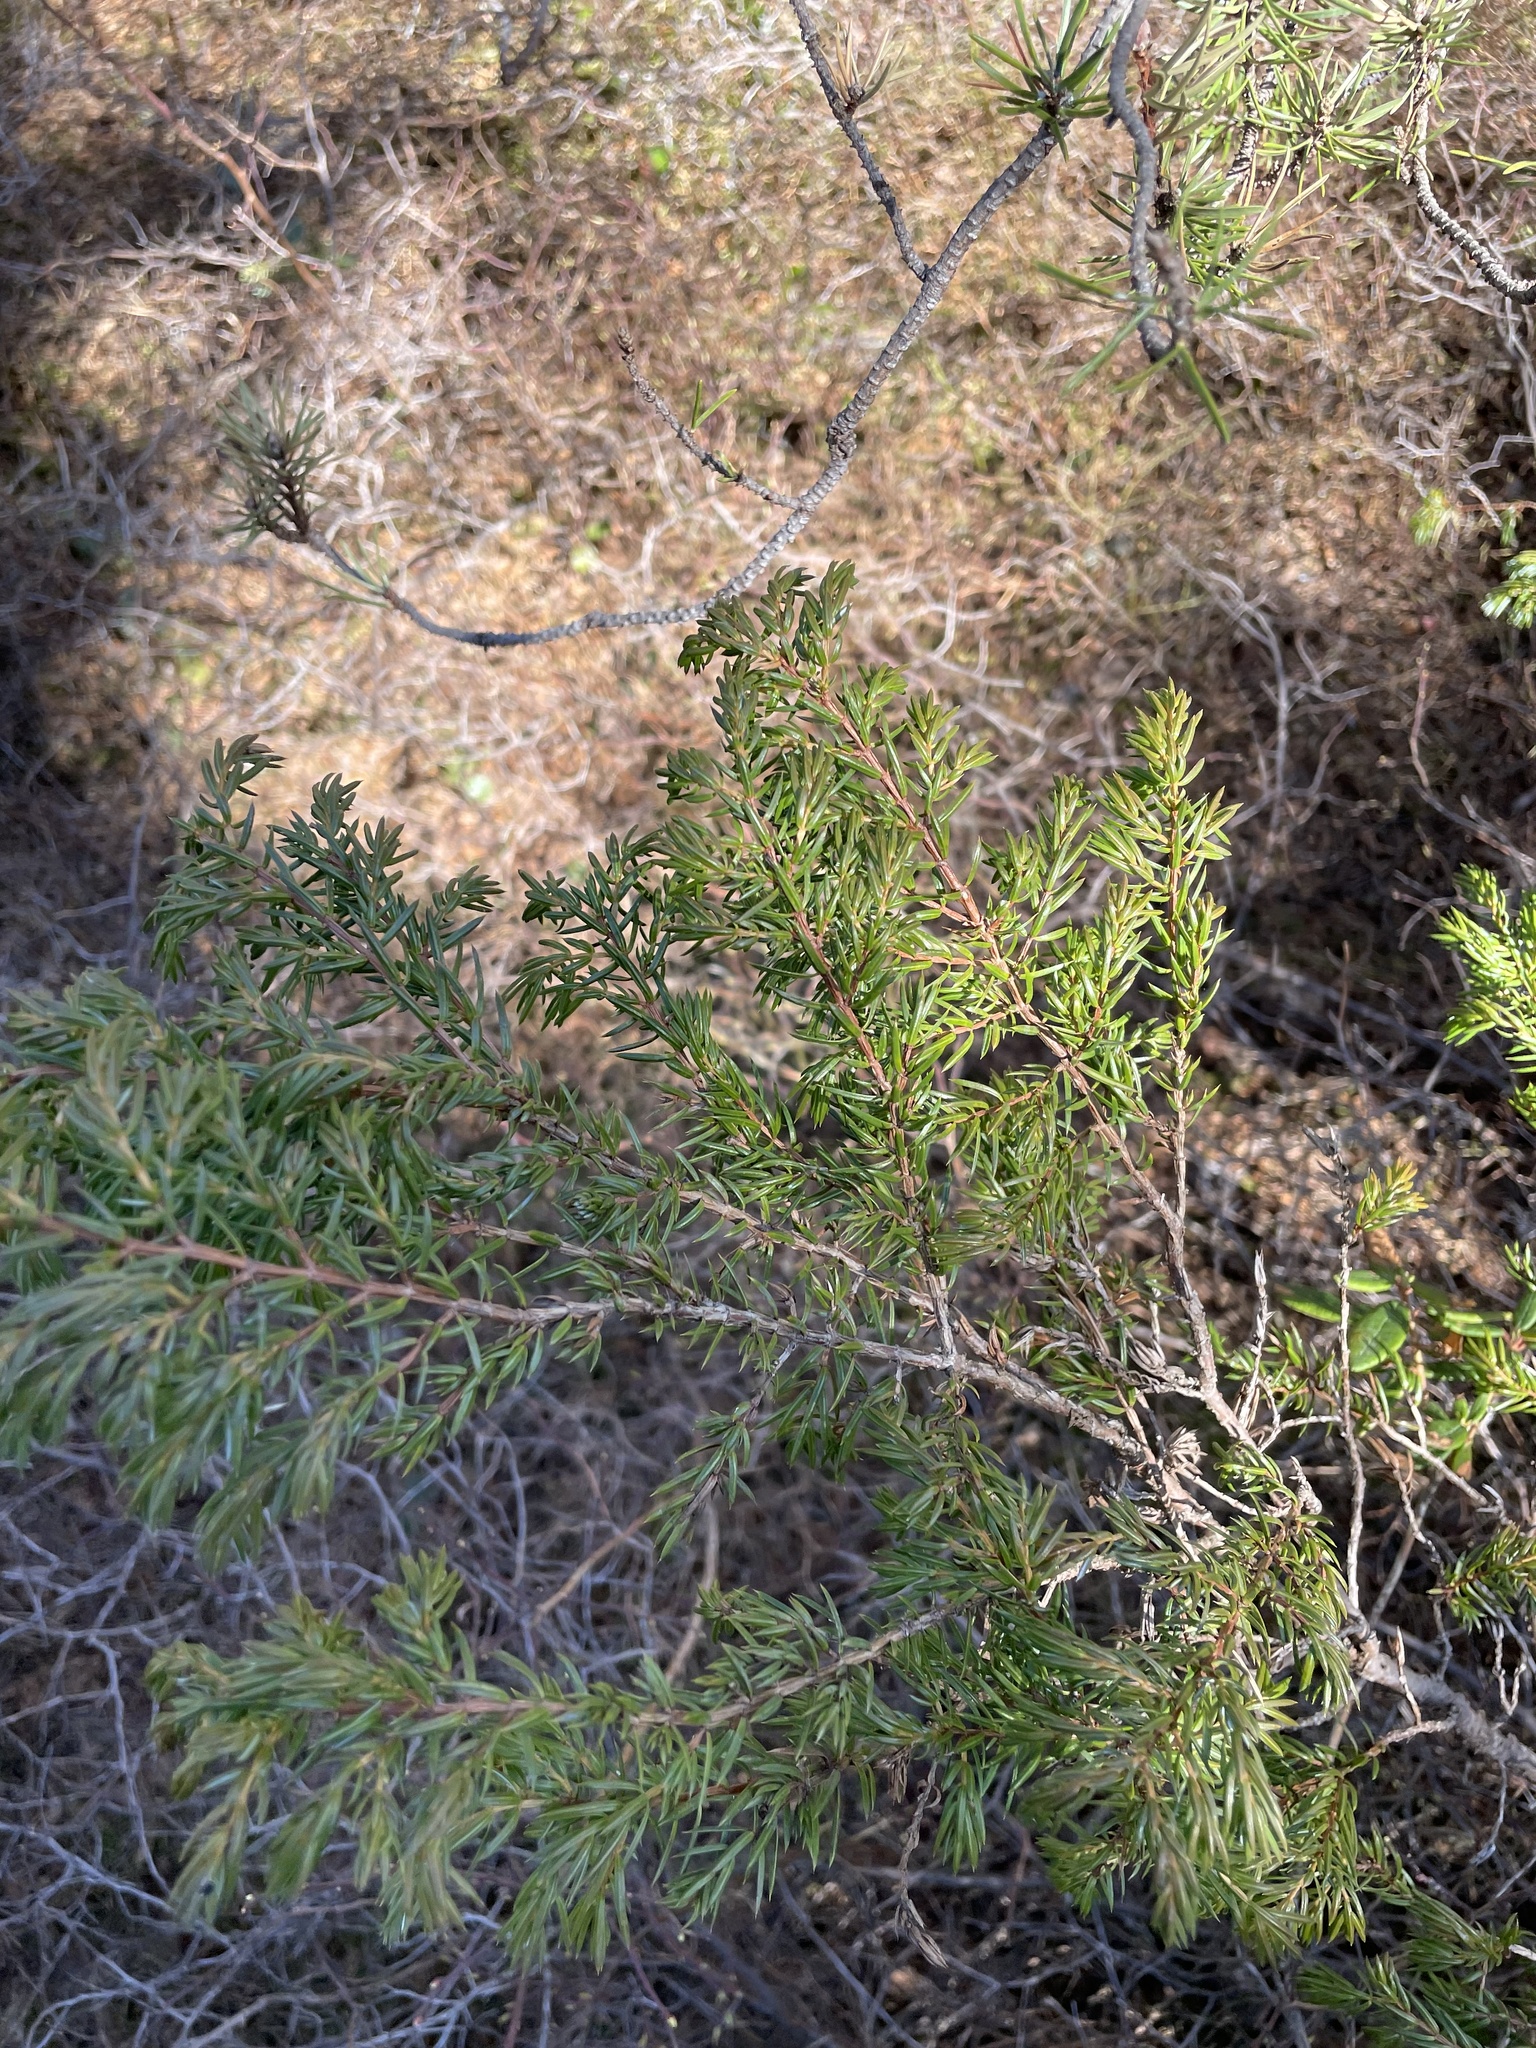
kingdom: Plantae
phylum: Tracheophyta
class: Pinopsida
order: Pinales
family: Cupressaceae
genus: Juniperus
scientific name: Juniperus communis
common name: Common juniper
